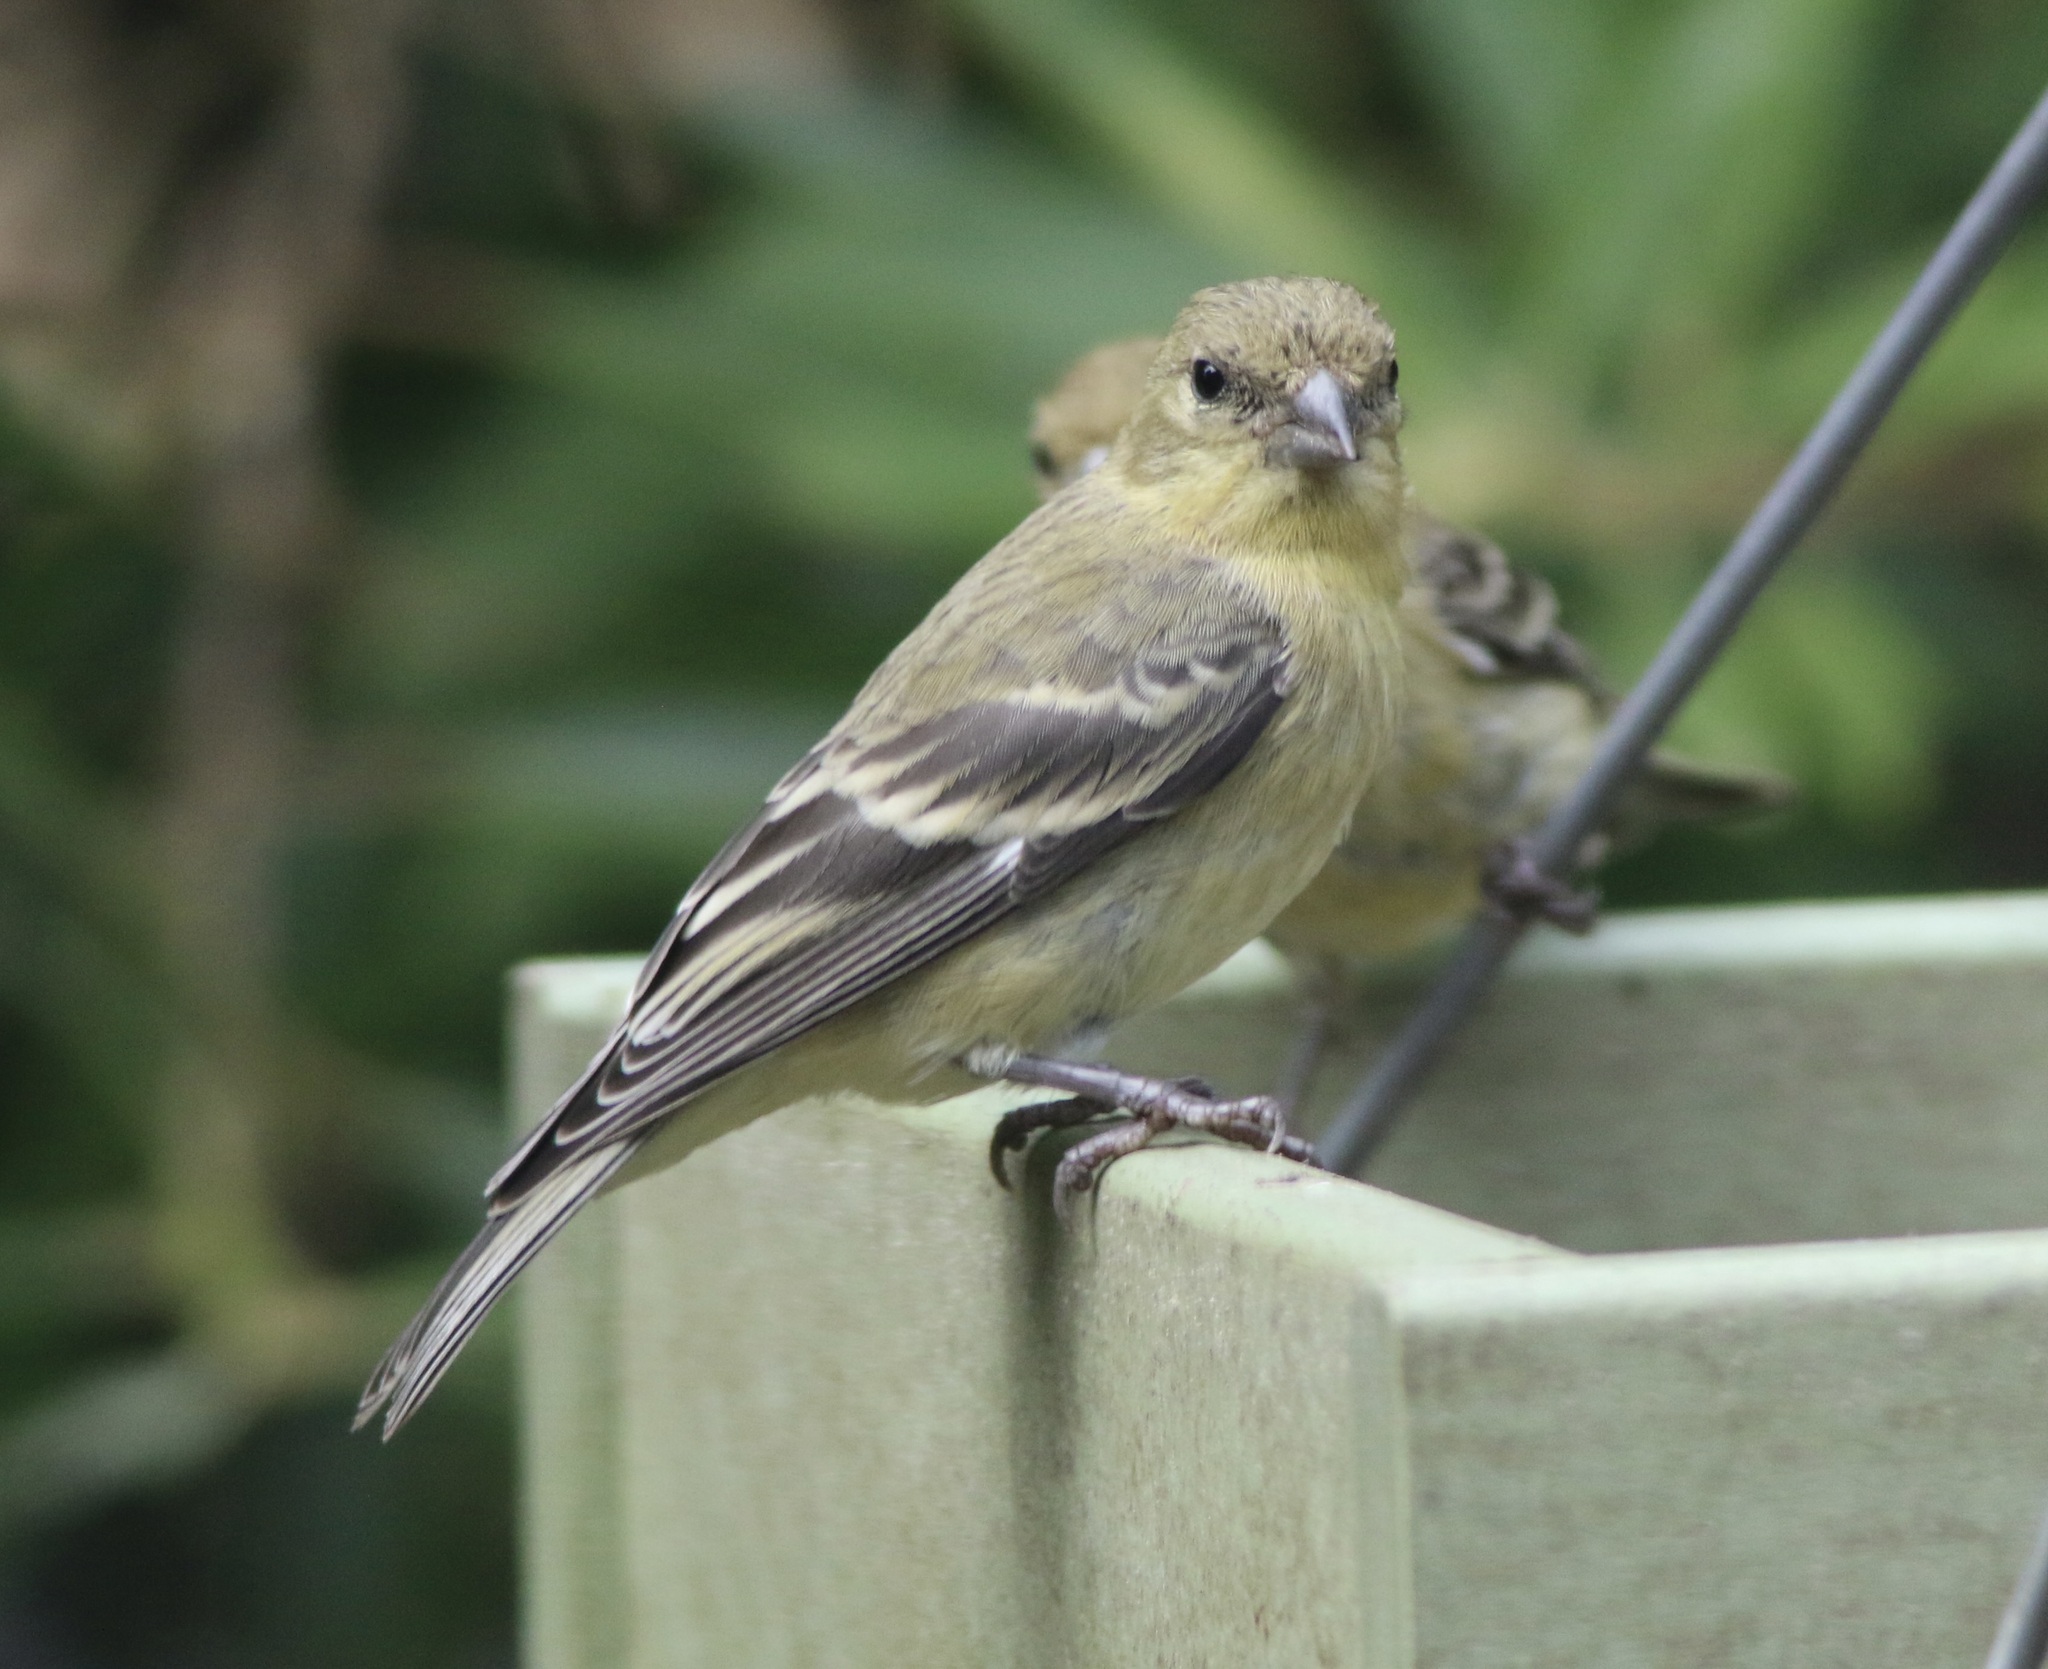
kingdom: Animalia
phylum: Chordata
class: Aves
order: Passeriformes
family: Fringillidae
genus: Spinus
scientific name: Spinus psaltria
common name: Lesser goldfinch
